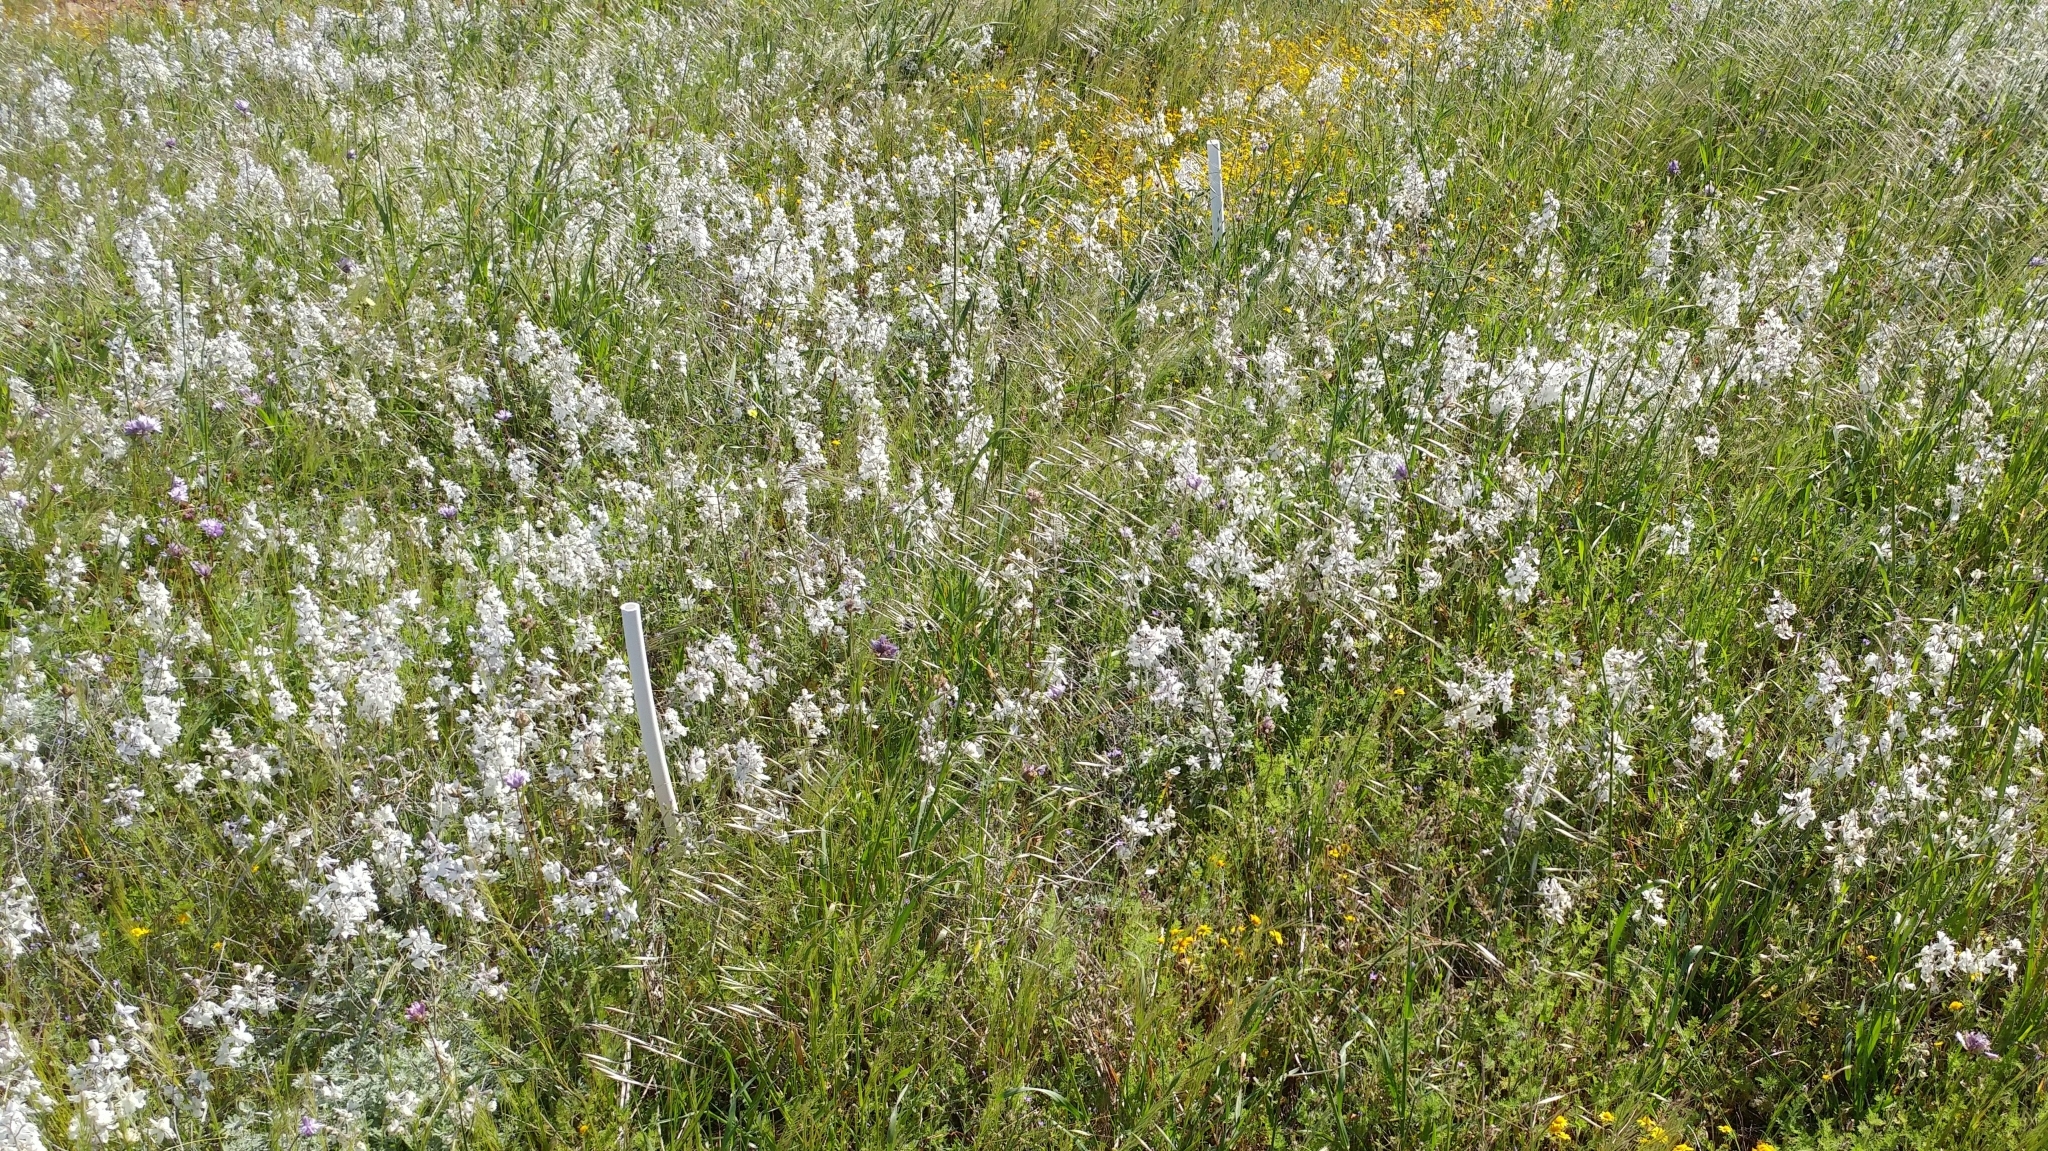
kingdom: Plantae
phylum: Tracheophyta
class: Magnoliopsida
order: Ranunculales
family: Ranunculaceae
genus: Delphinium
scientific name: Delphinium variegatum
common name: Royal larkspur
